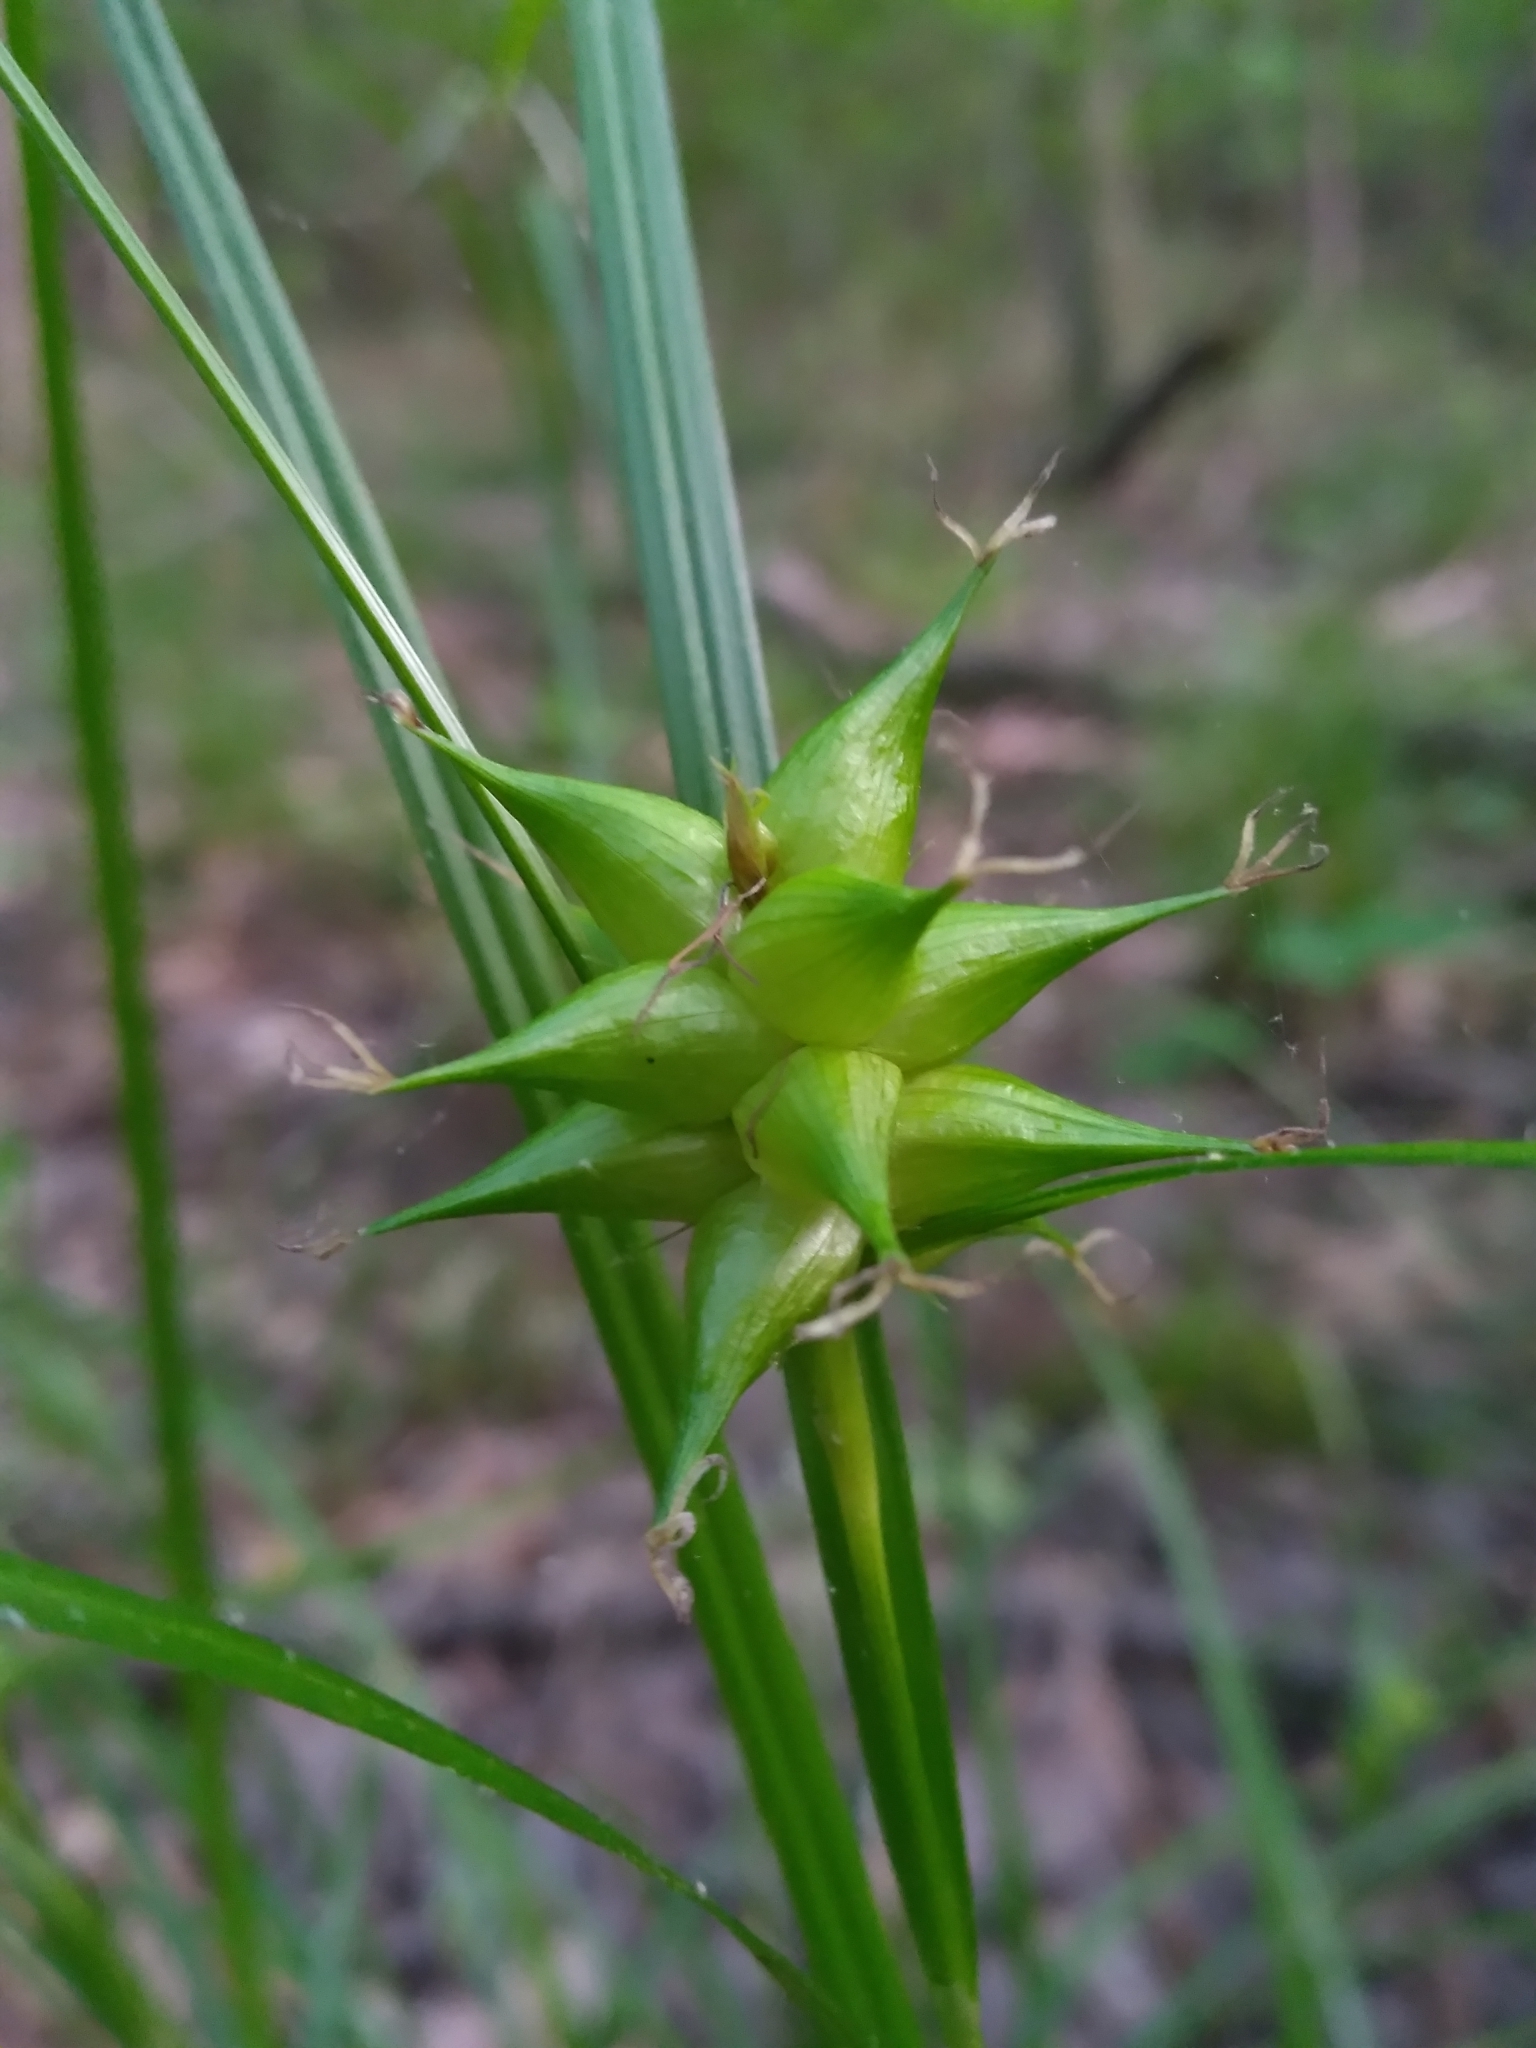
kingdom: Plantae
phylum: Tracheophyta
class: Liliopsida
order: Poales
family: Cyperaceae
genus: Carex
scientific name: Carex intumescens
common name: Greater bladder sedge
